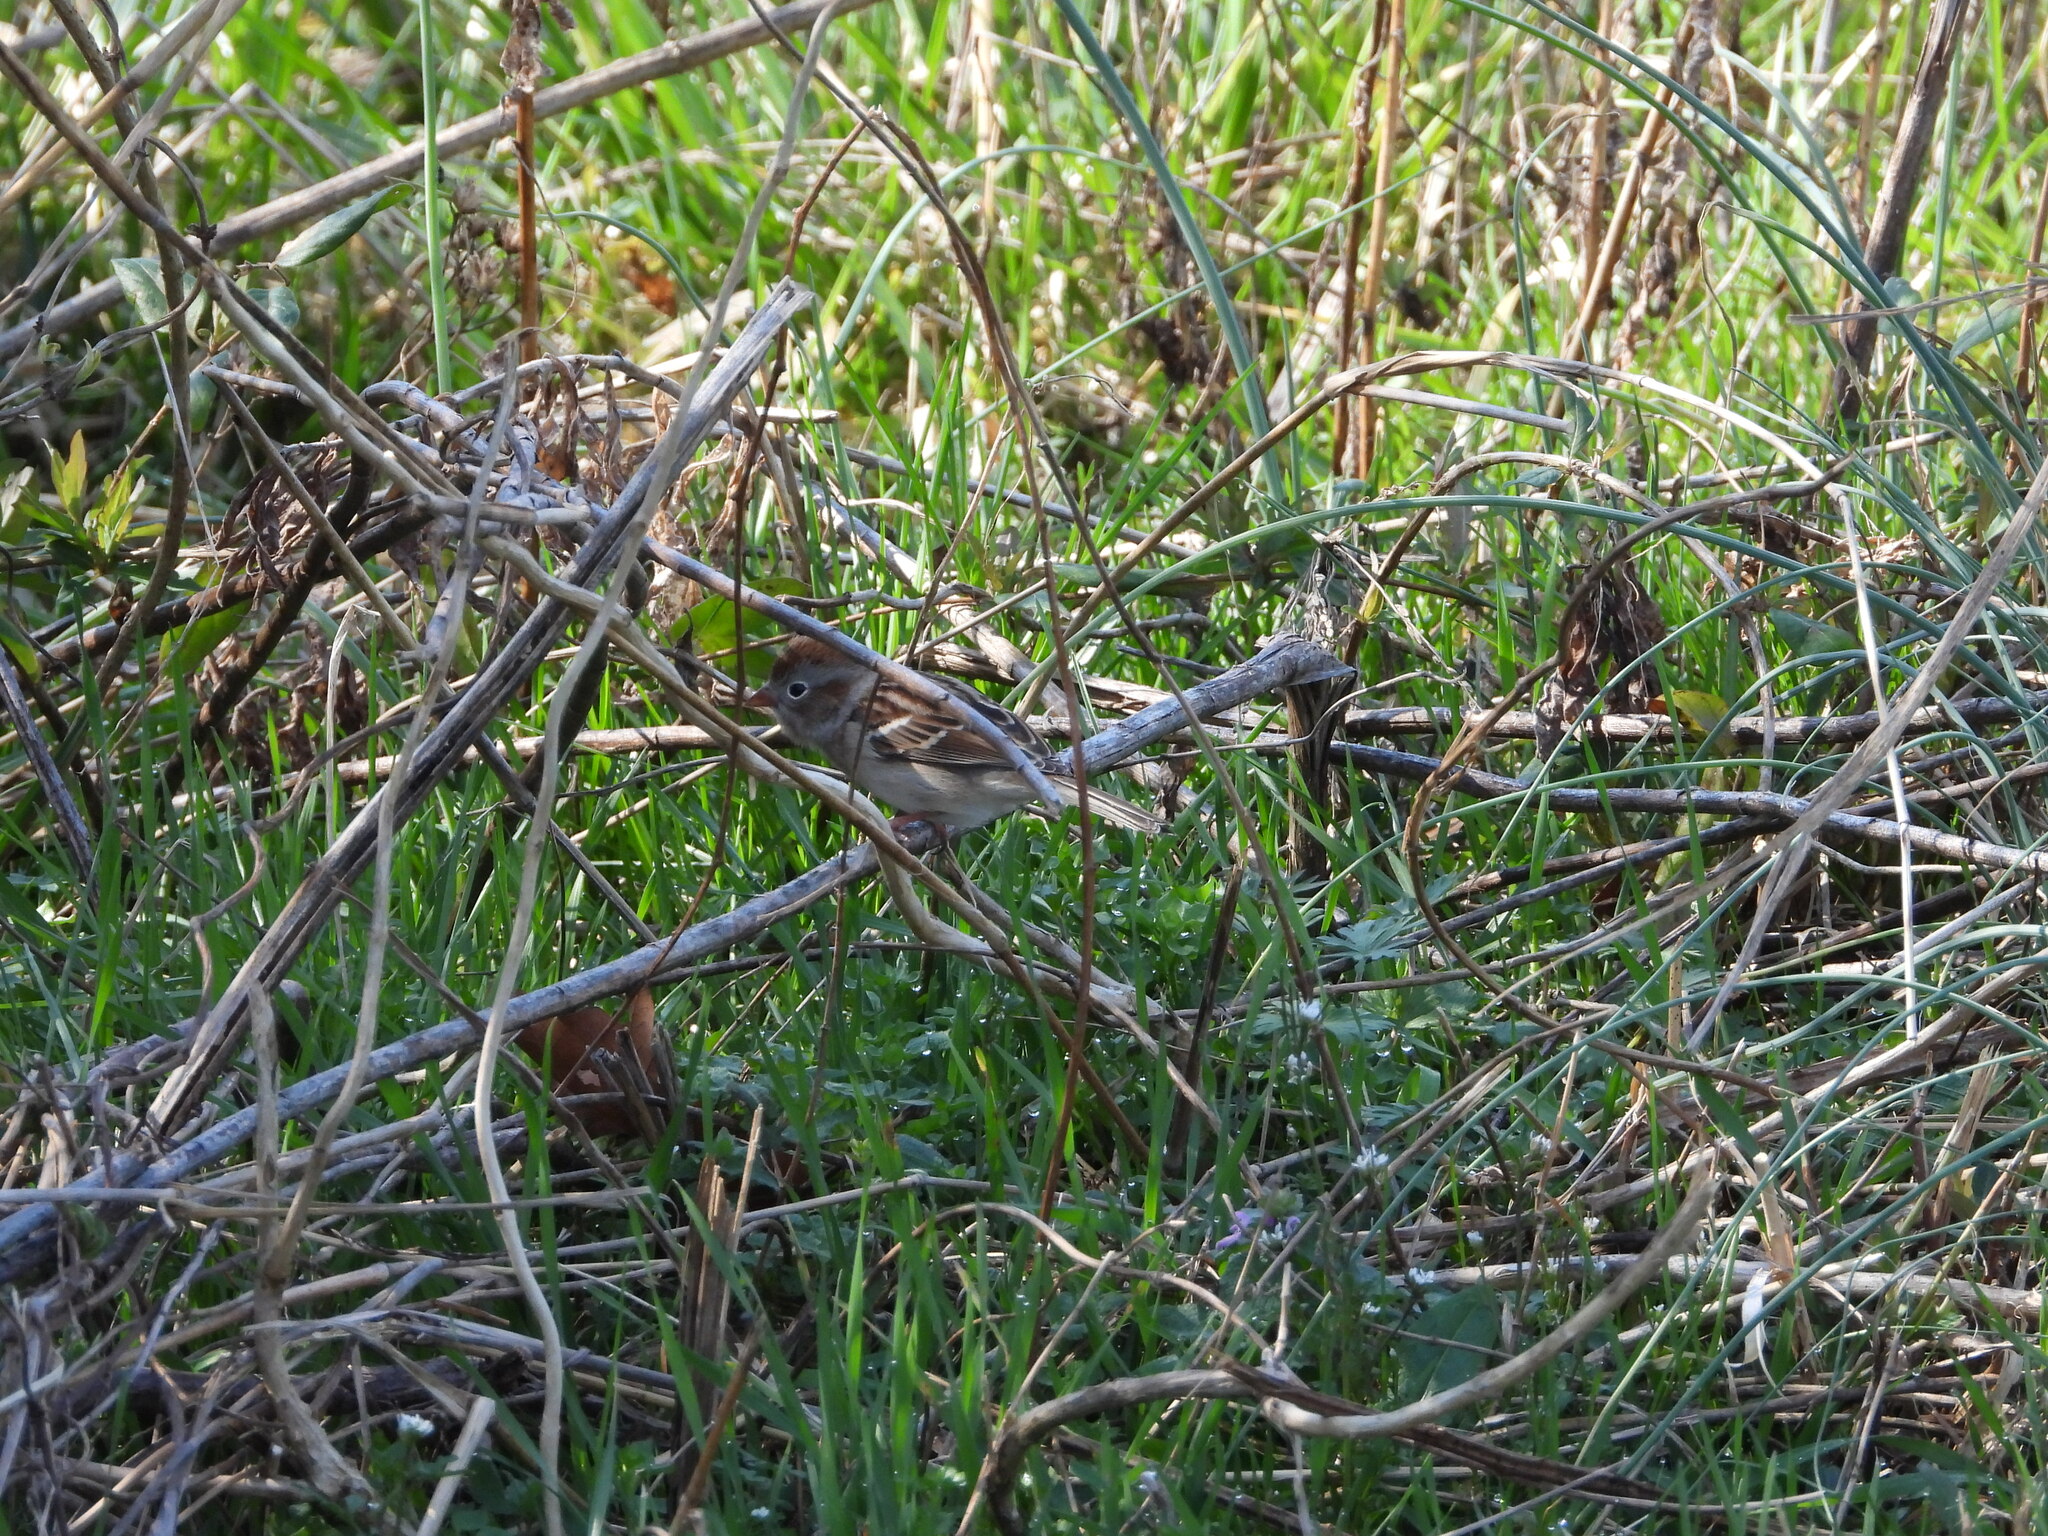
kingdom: Animalia
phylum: Chordata
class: Aves
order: Passeriformes
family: Passerellidae
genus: Spizella
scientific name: Spizella pusilla
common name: Field sparrow
